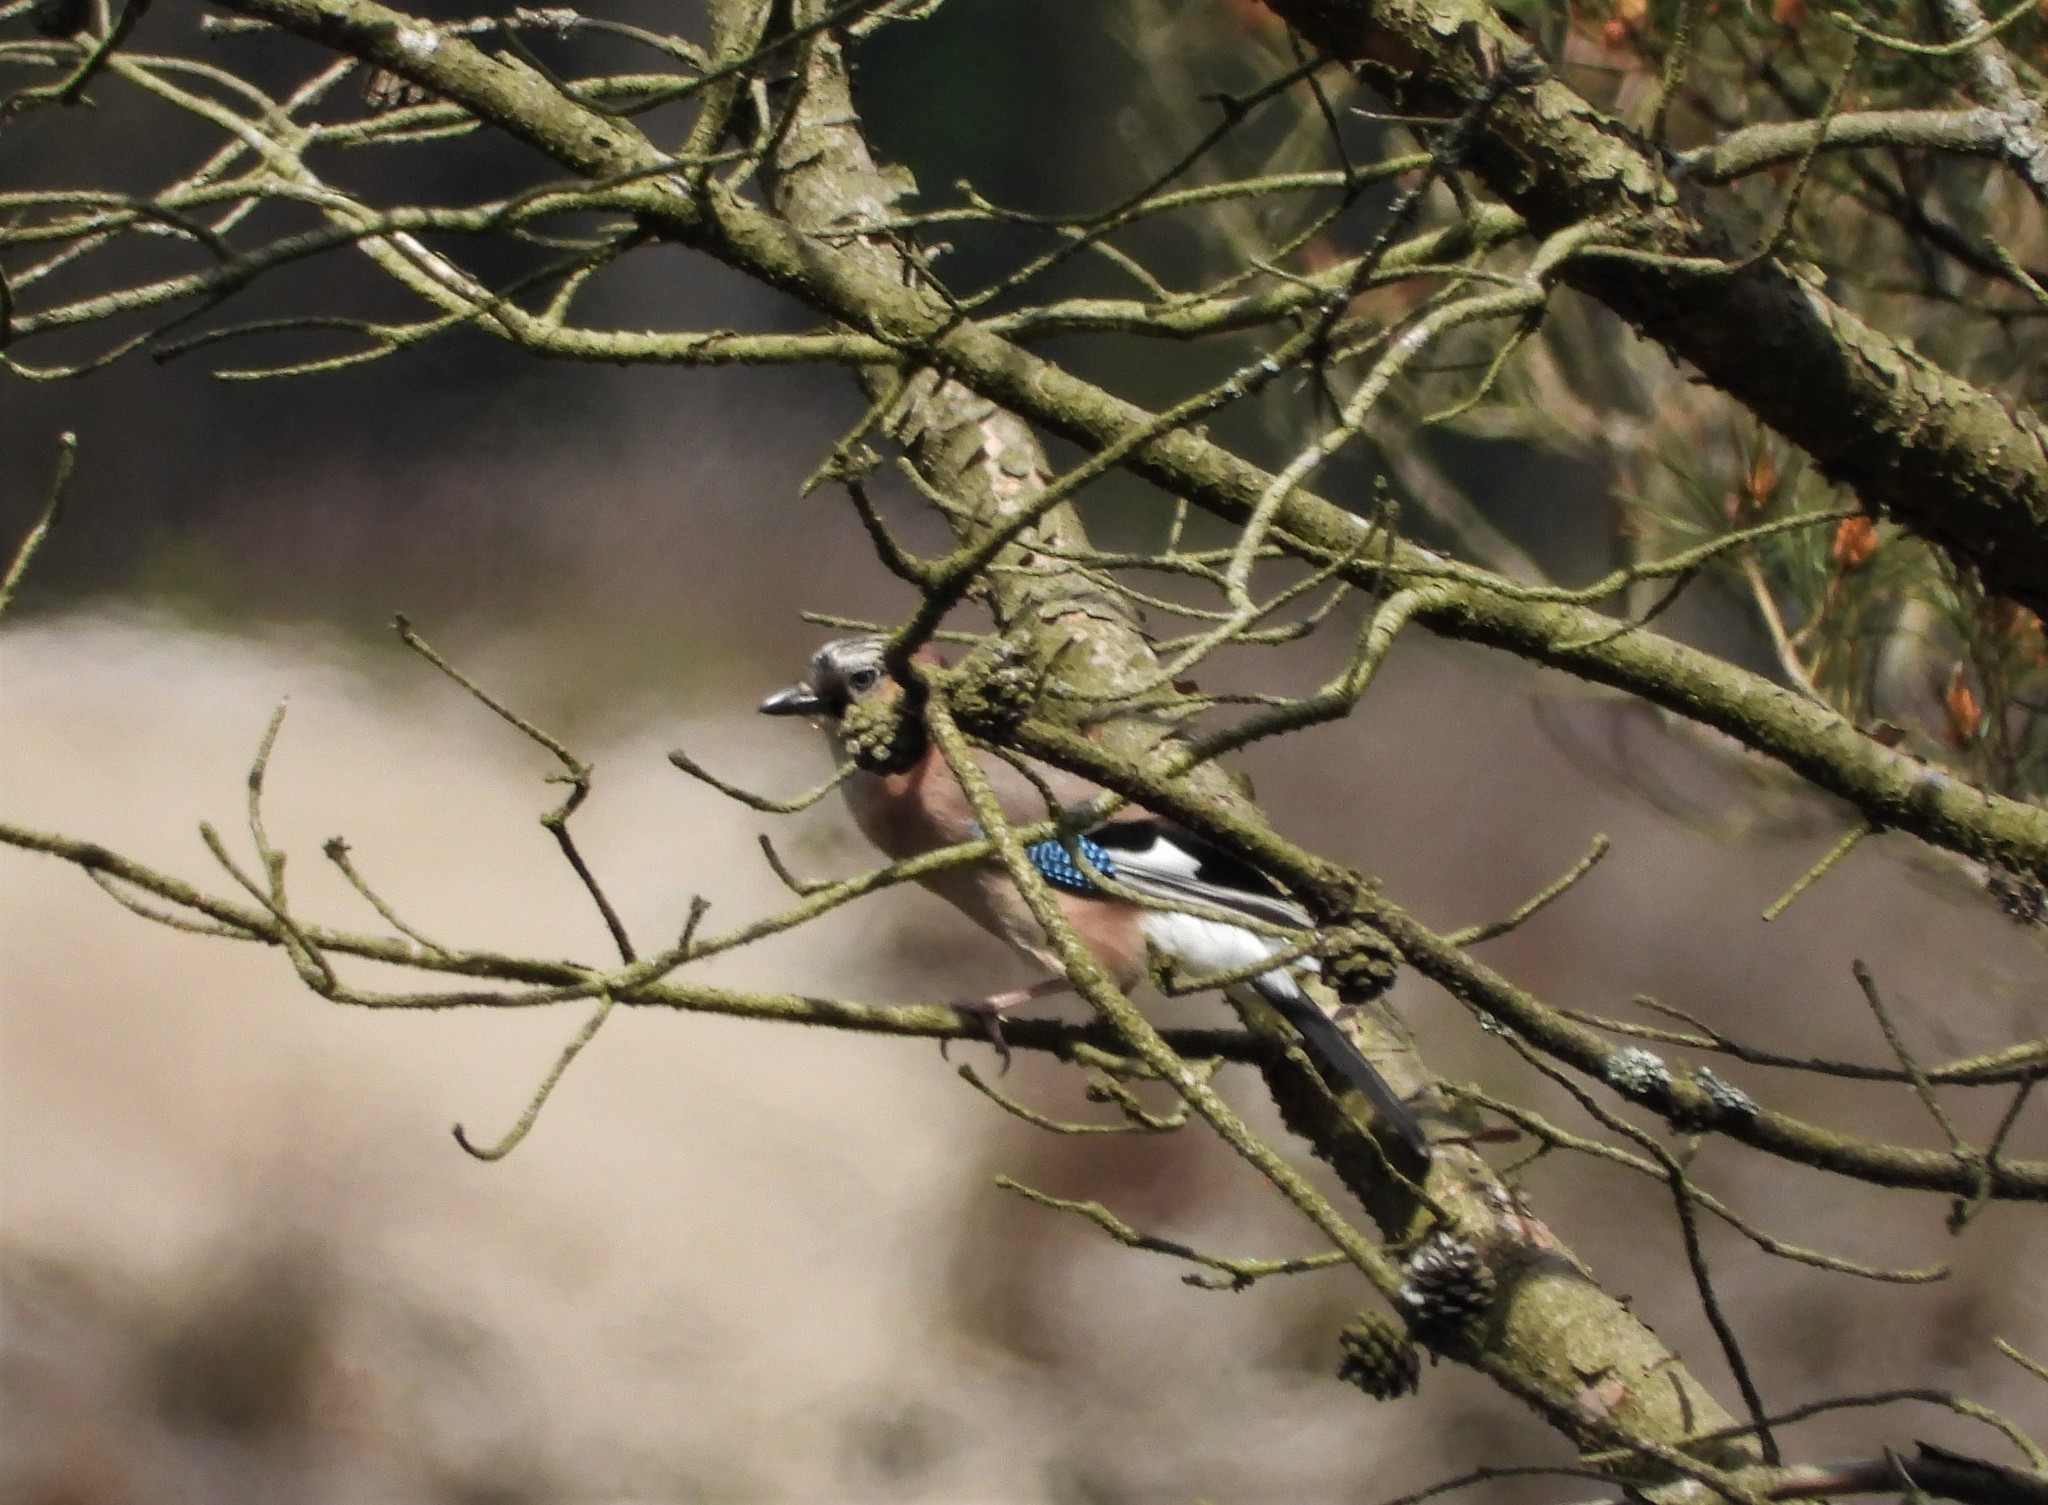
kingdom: Animalia
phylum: Chordata
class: Aves
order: Passeriformes
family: Corvidae
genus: Garrulus
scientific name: Garrulus glandarius
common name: Eurasian jay
